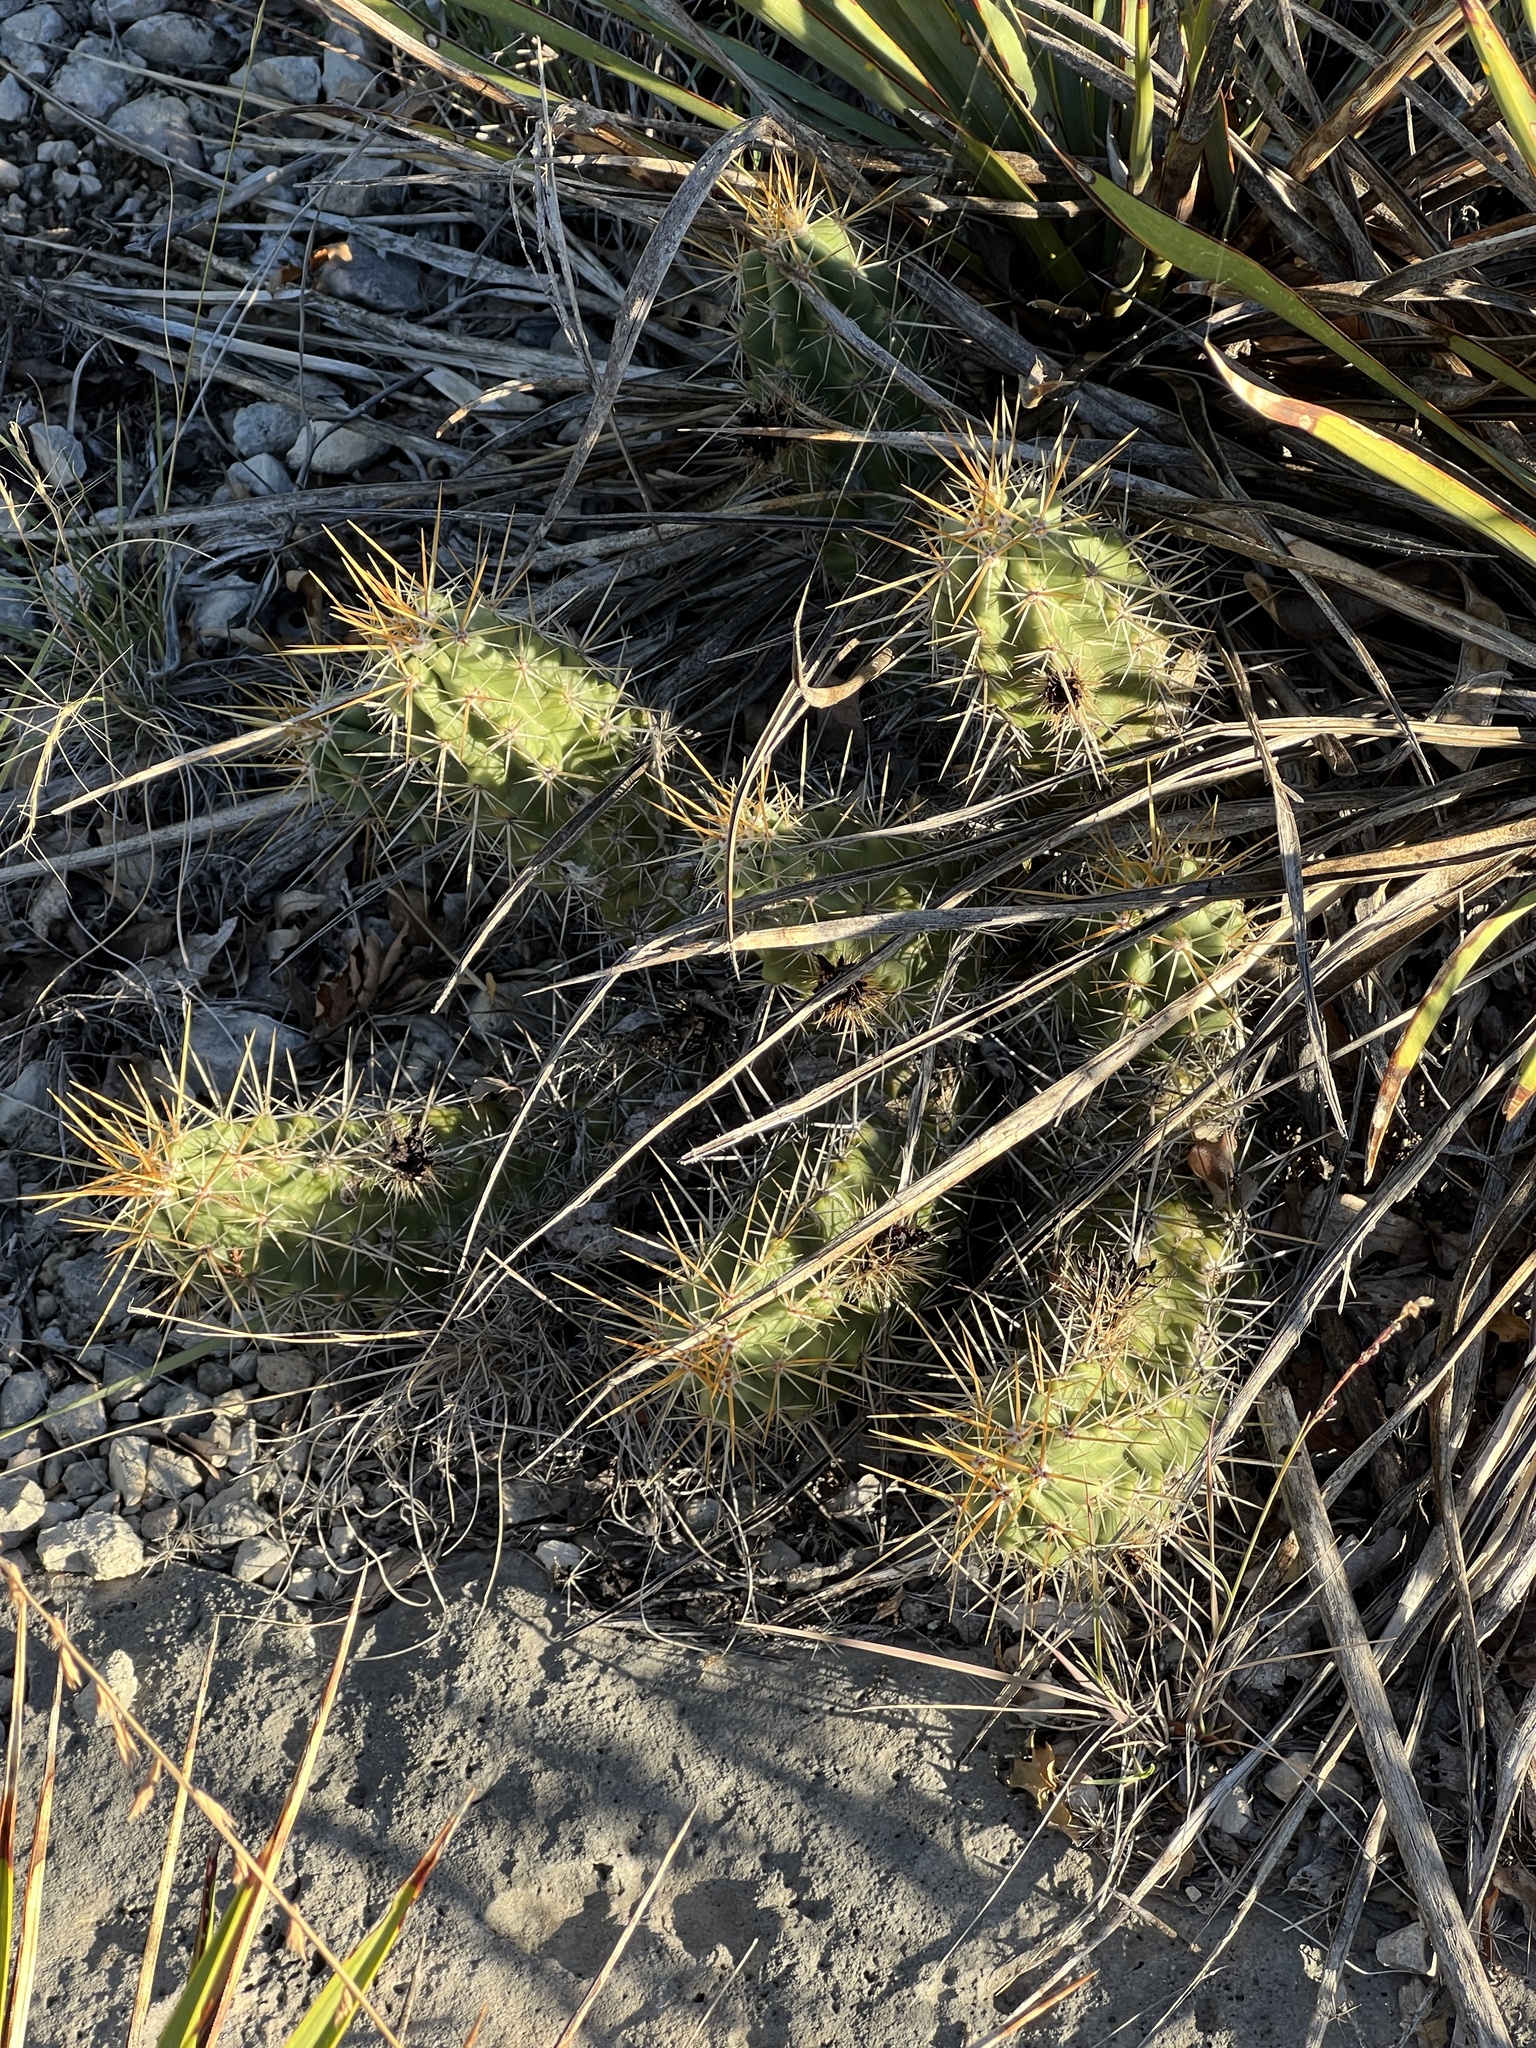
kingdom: Plantae
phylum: Tracheophyta
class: Magnoliopsida
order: Caryophyllales
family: Cactaceae
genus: Echinocereus
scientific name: Echinocereus enneacanthus
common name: Pitaya
